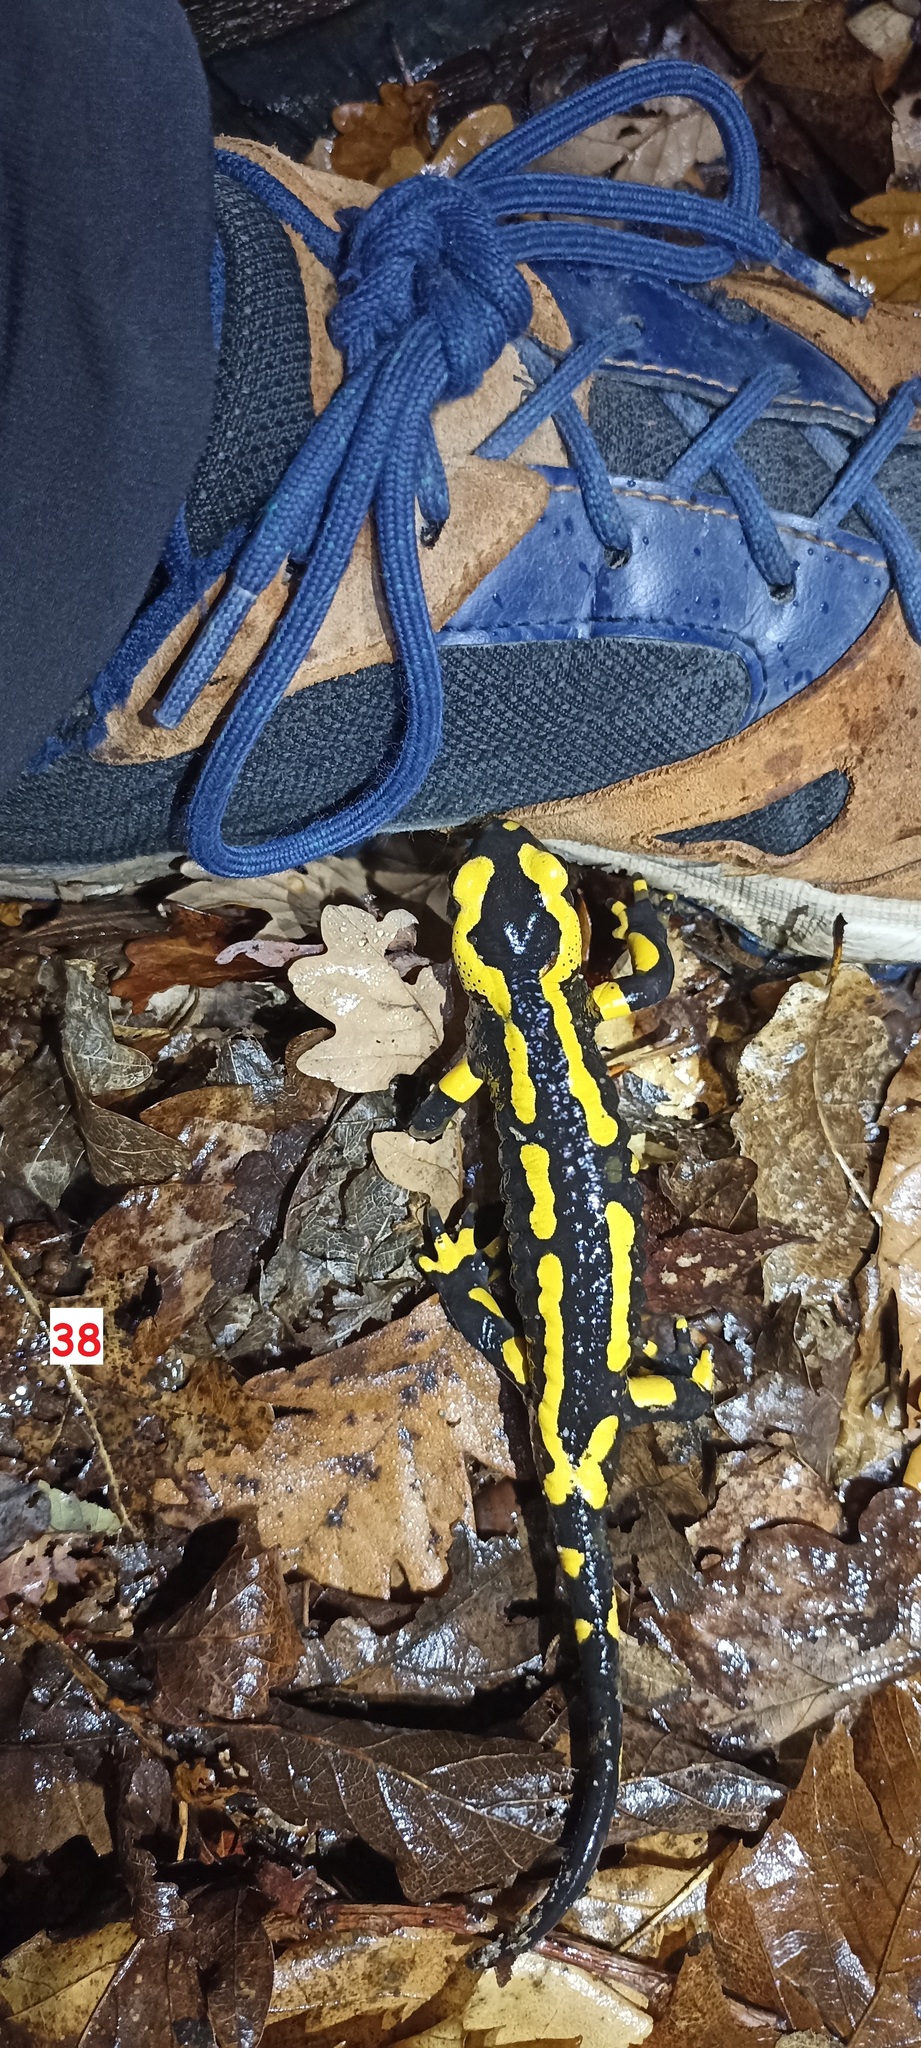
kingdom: Animalia
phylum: Chordata
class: Amphibia
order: Caudata
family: Salamandridae
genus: Salamandra
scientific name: Salamandra salamandra
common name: Fire salamander
